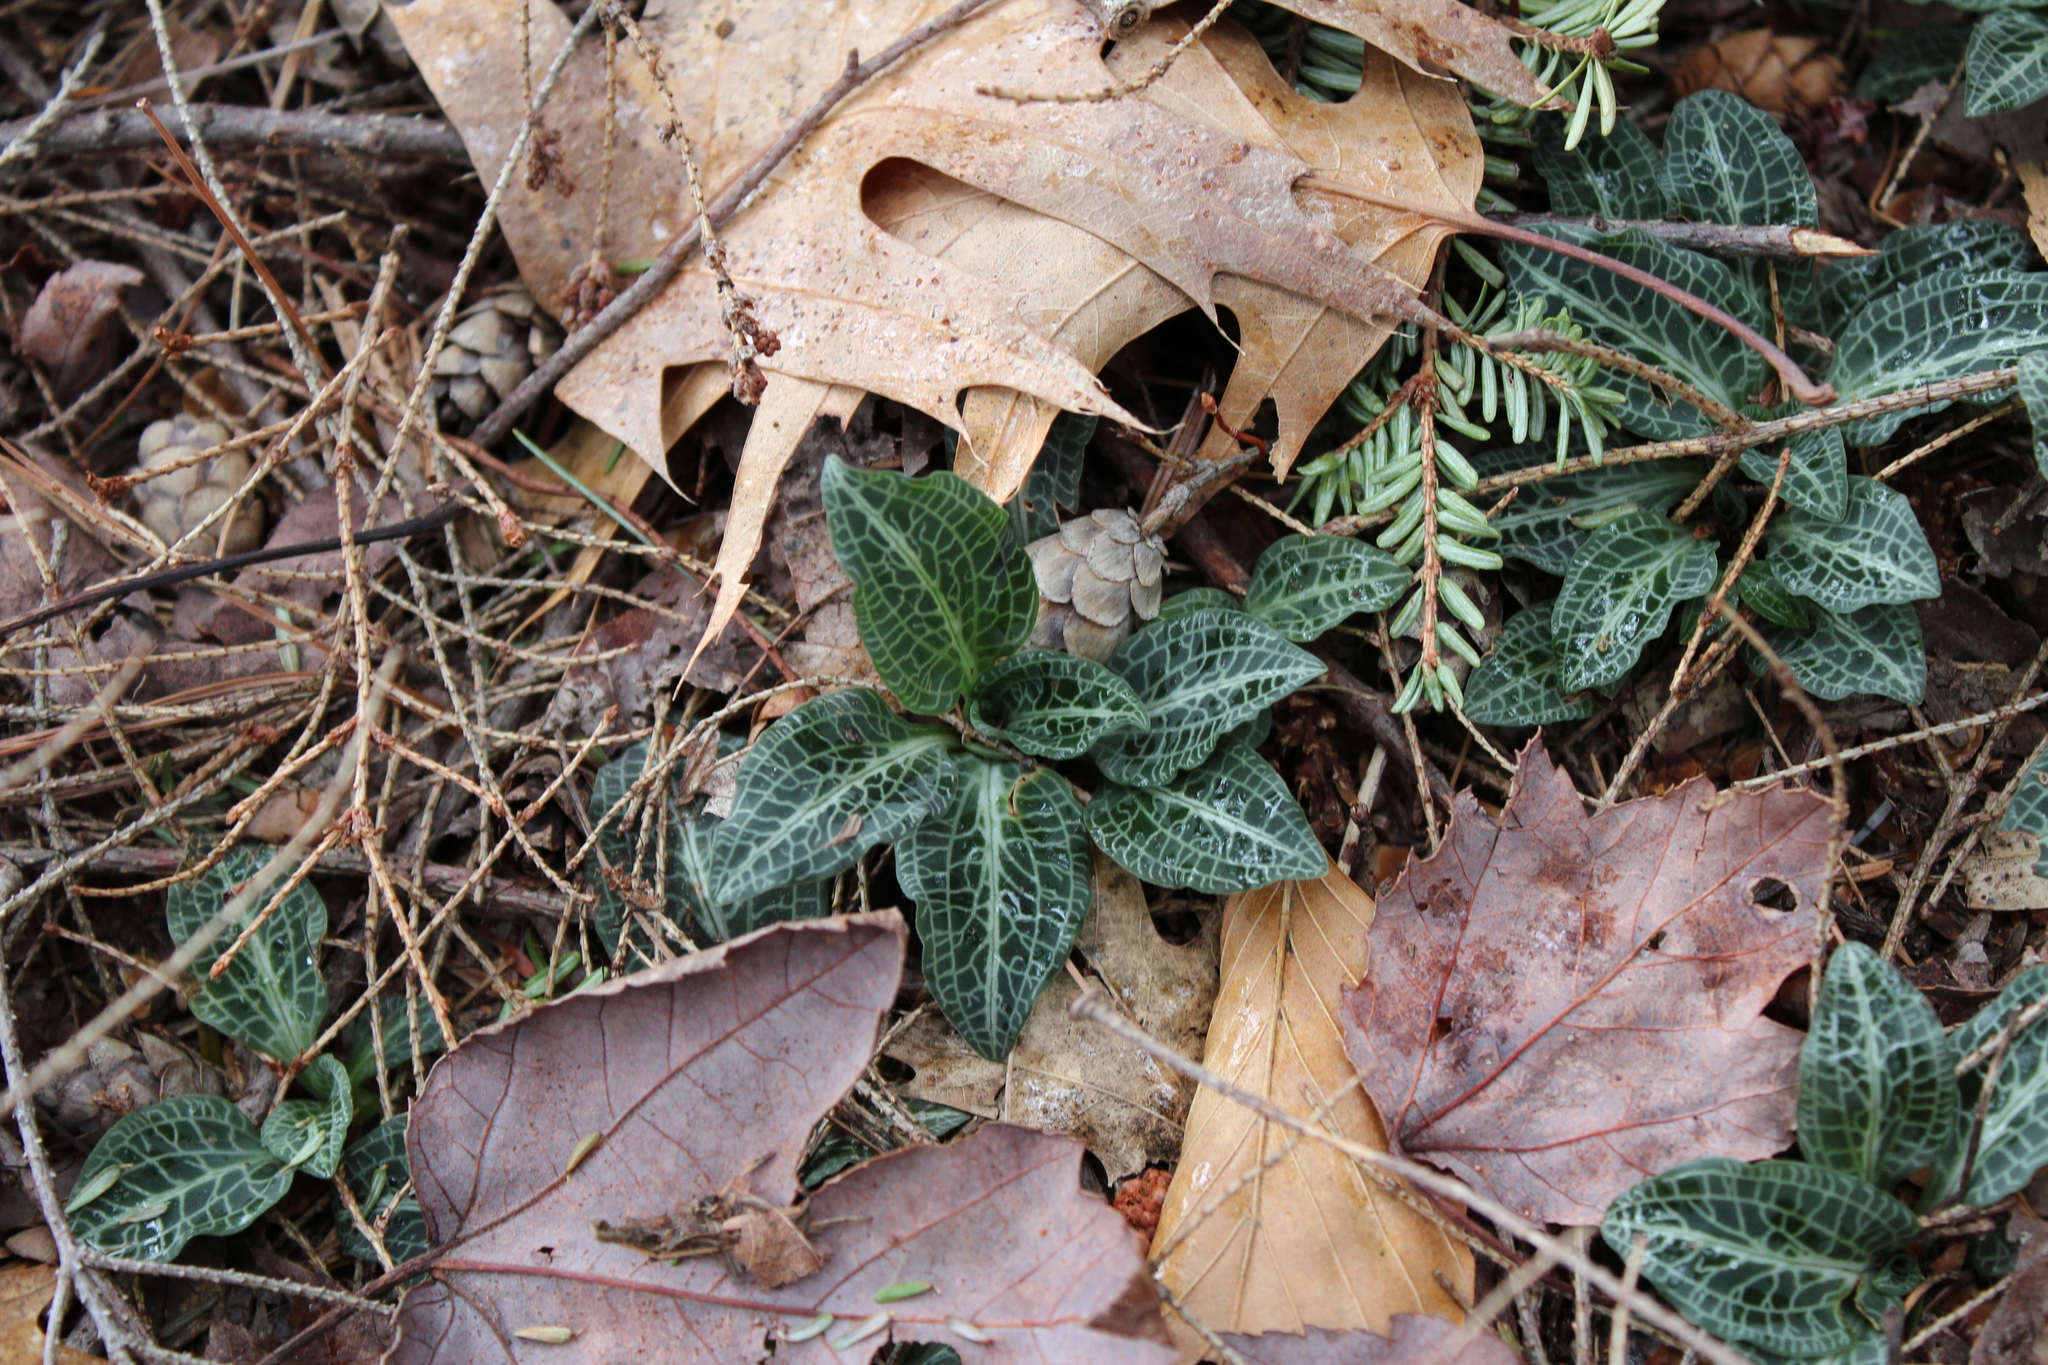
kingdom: Plantae
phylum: Tracheophyta
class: Liliopsida
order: Asparagales
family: Orchidaceae
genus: Goodyera
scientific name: Goodyera pubescens
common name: Downy rattlesnake-plantain
